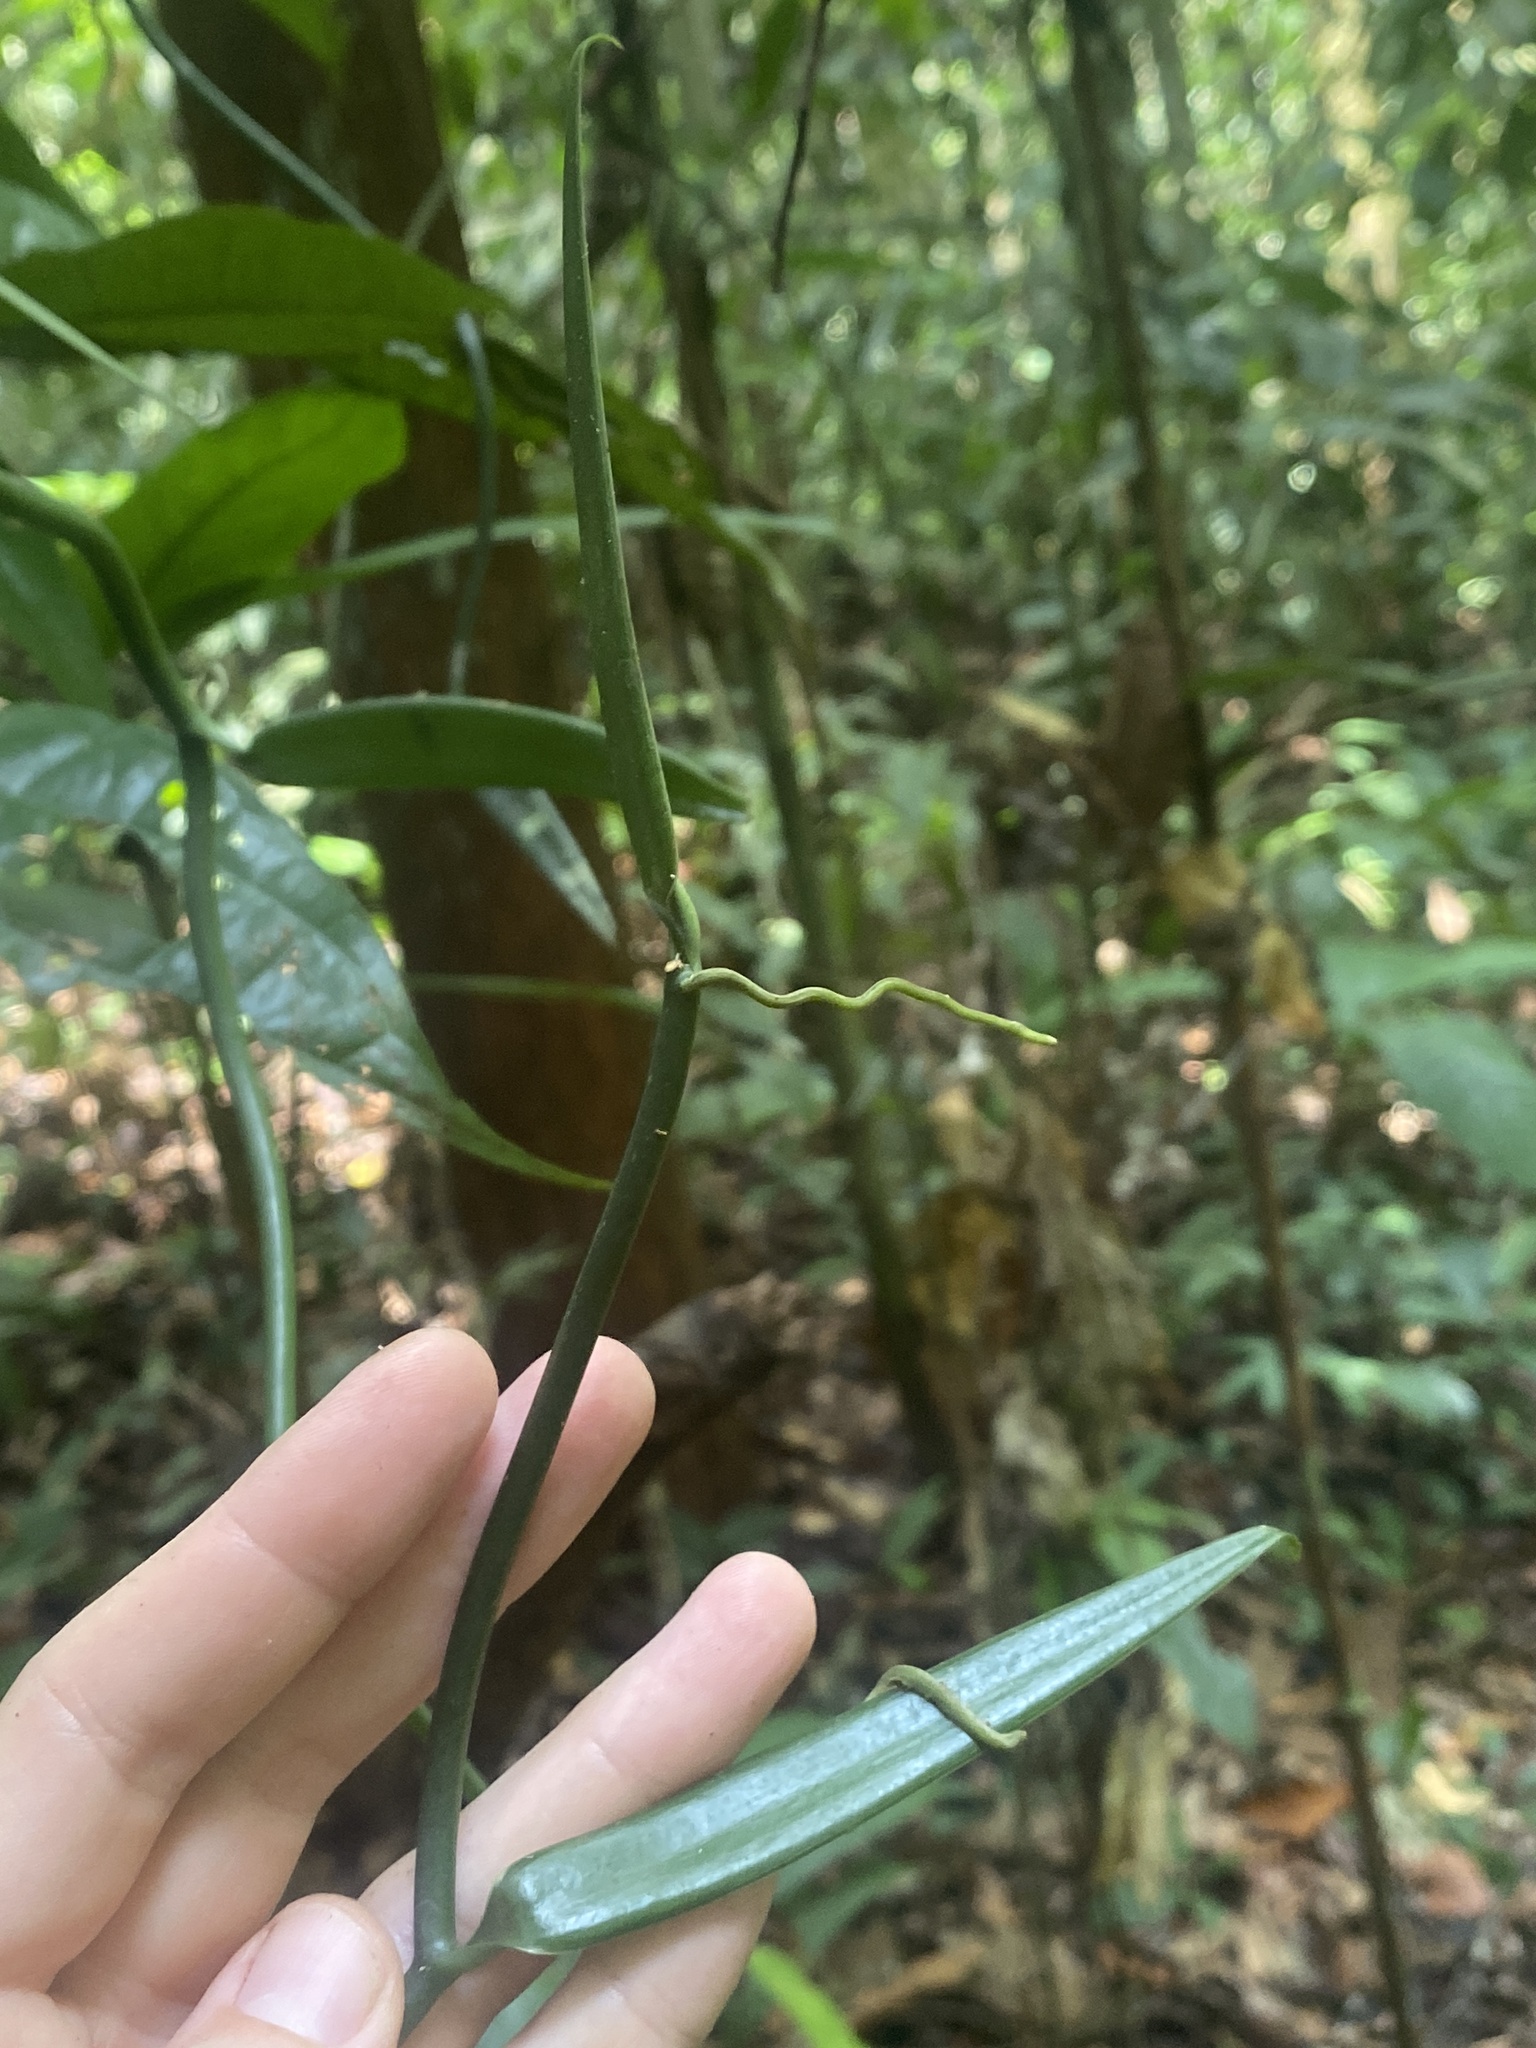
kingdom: Plantae
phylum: Tracheophyta
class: Liliopsida
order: Asparagales
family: Orchidaceae
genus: Vanilla
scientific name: Vanilla odorata
